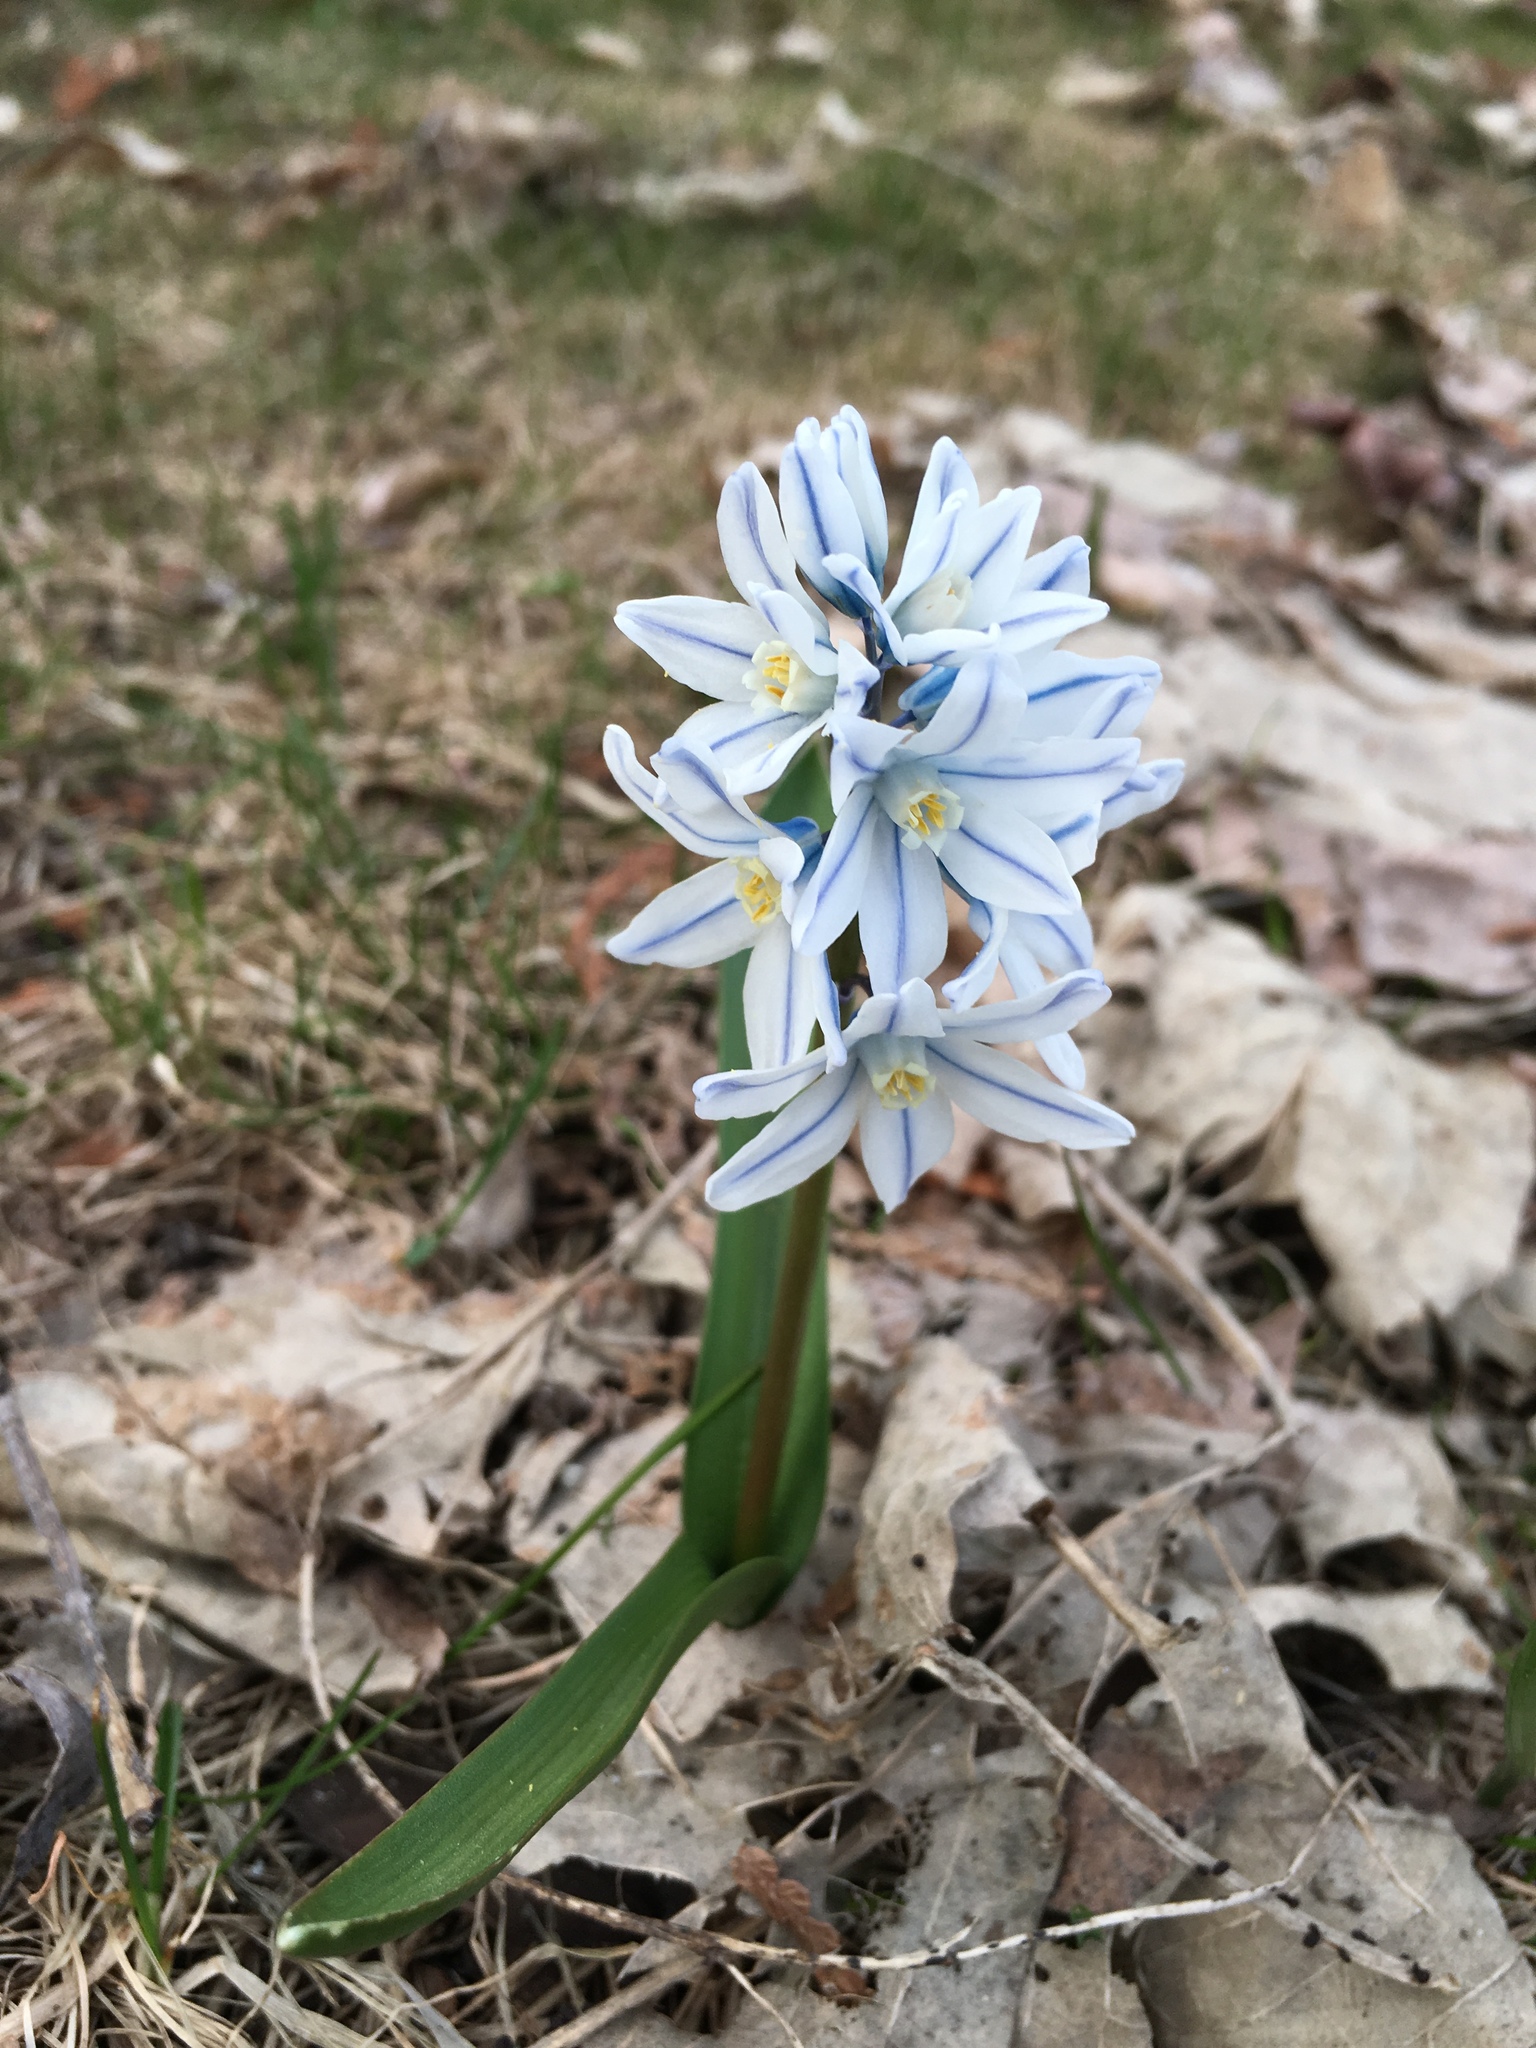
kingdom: Plantae
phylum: Tracheophyta
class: Liliopsida
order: Asparagales
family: Asparagaceae
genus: Puschkinia
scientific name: Puschkinia scilloides
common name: Striped squill
